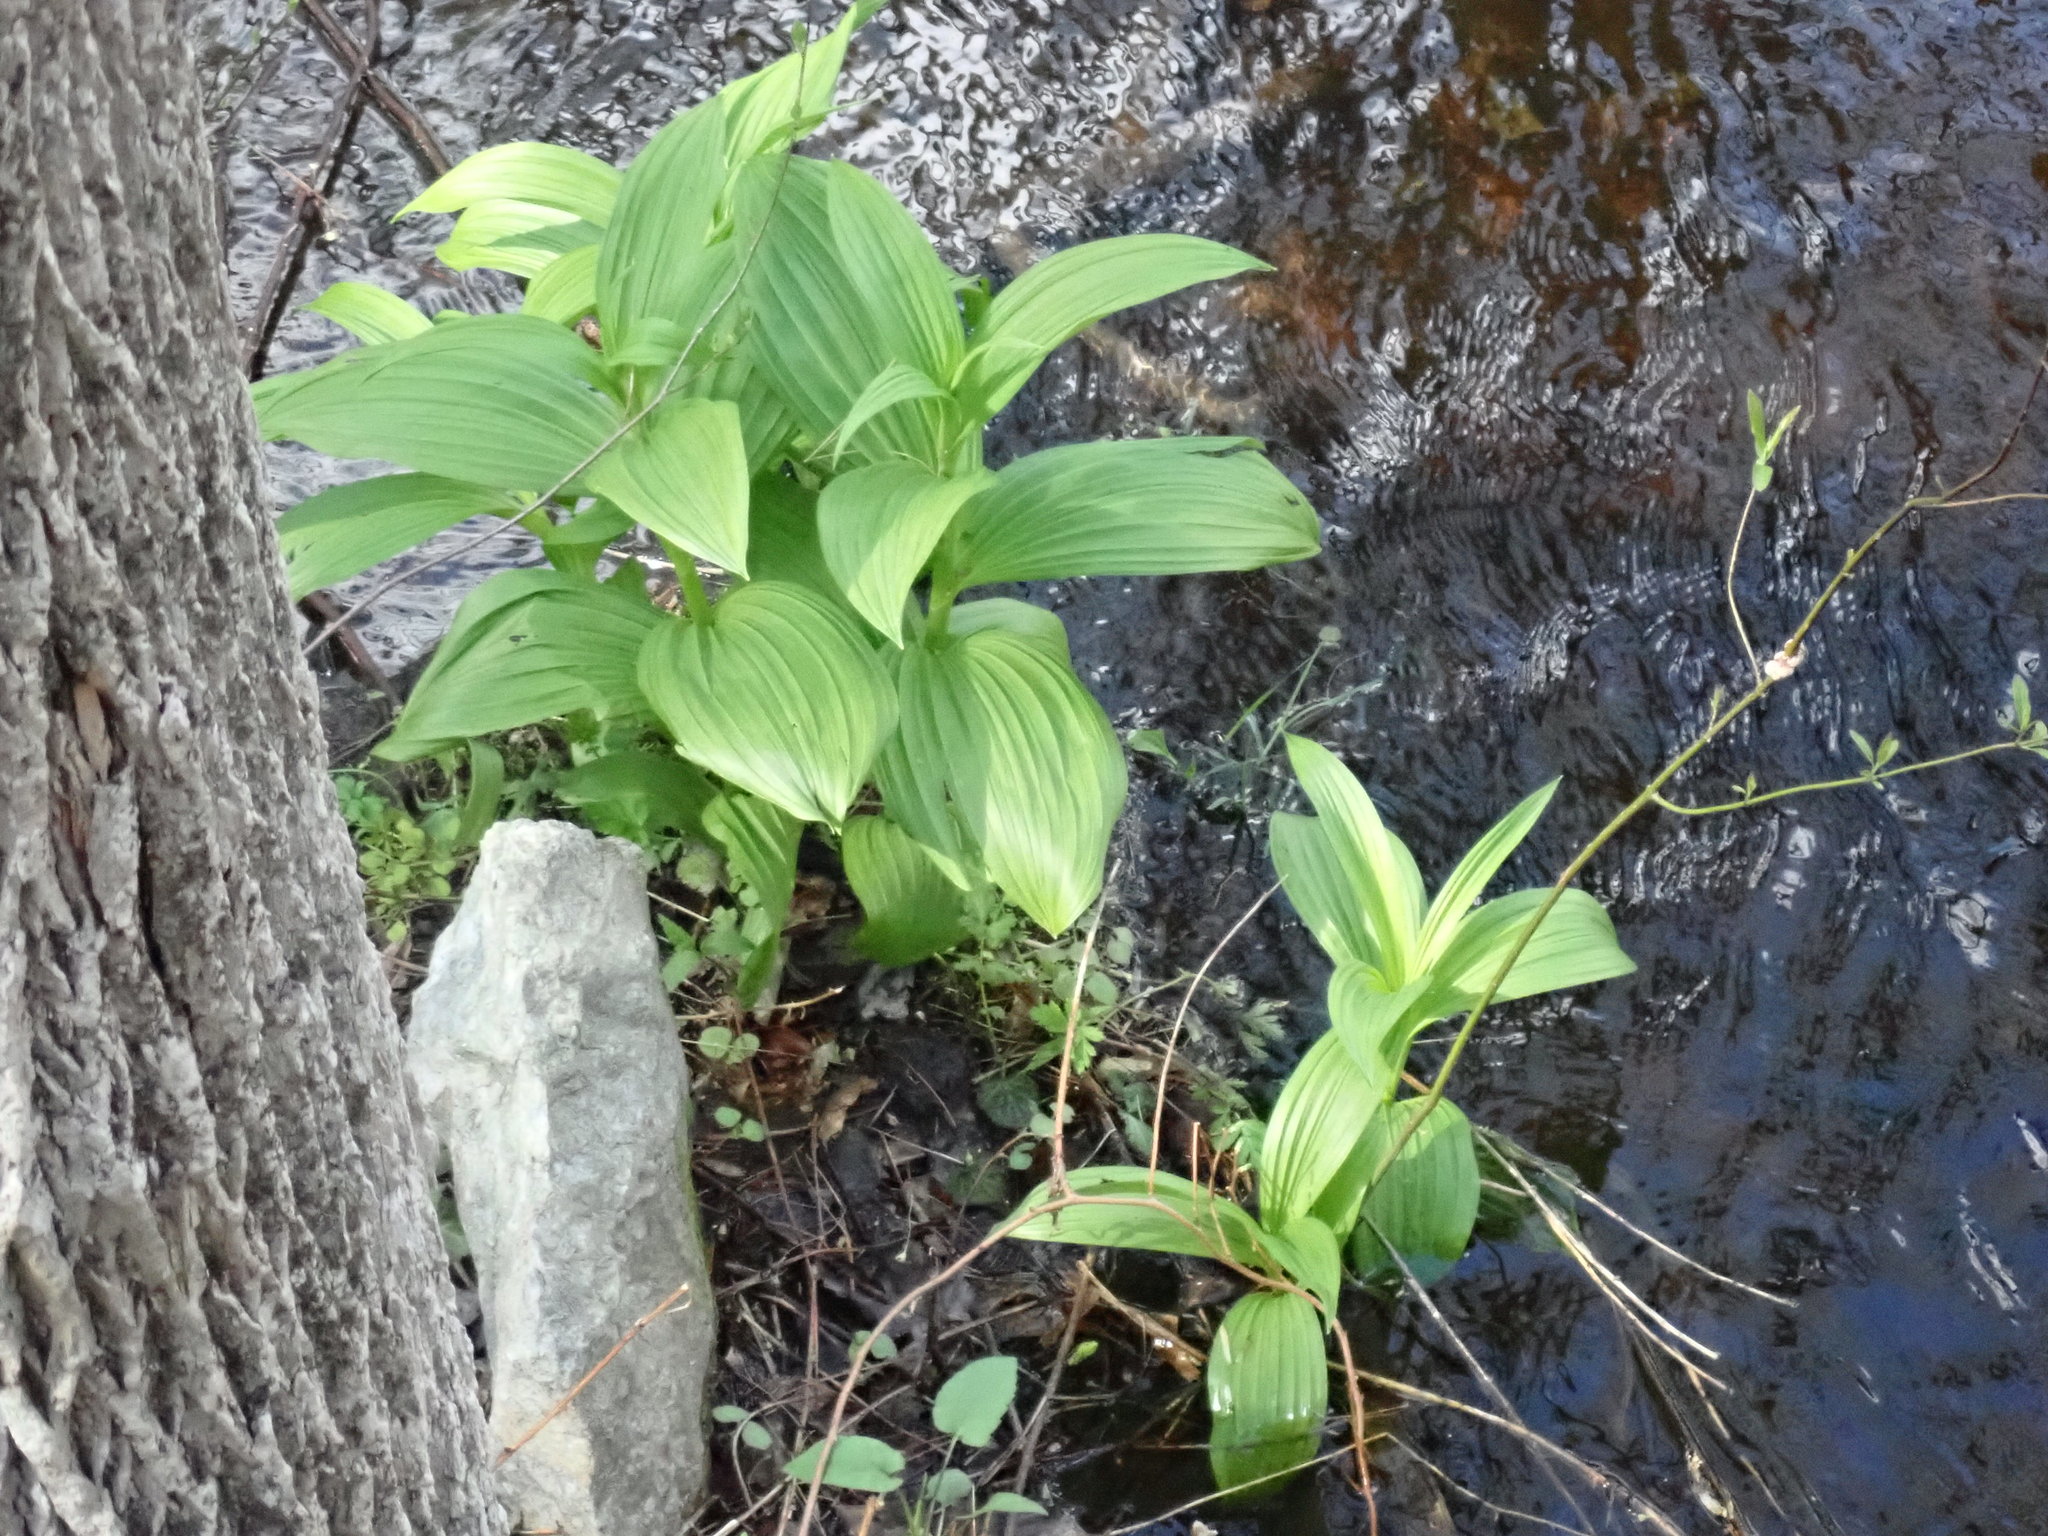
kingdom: Plantae
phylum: Tracheophyta
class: Liliopsida
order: Liliales
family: Melanthiaceae
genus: Veratrum
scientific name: Veratrum viride
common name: American false hellebore
